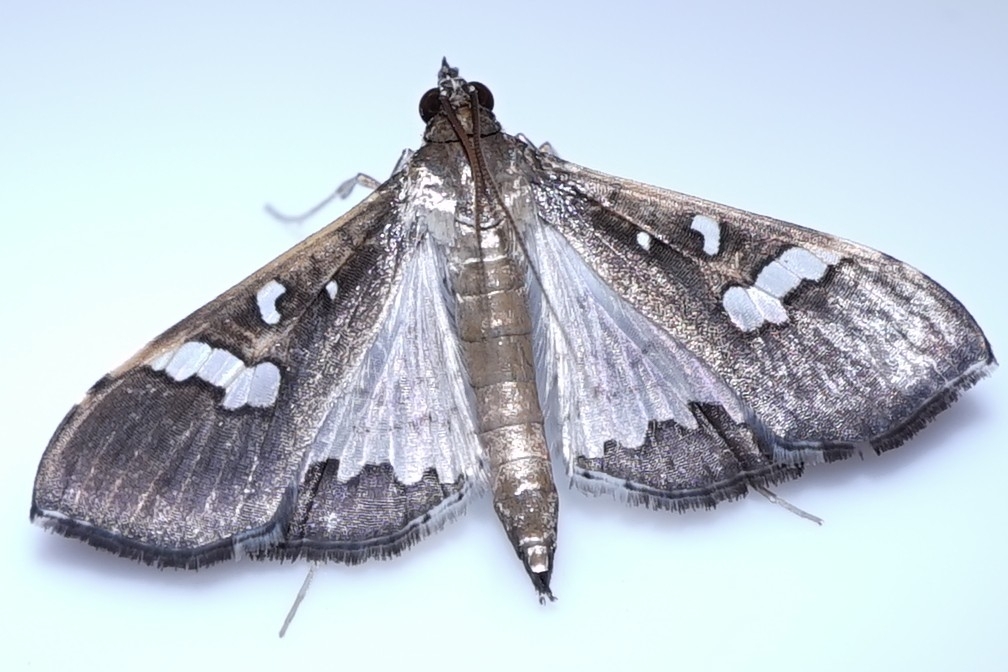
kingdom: Animalia
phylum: Arthropoda
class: Insecta
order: Lepidoptera
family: Crambidae
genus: Maruca
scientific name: Maruca vitrata
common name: Maruca pod borer
